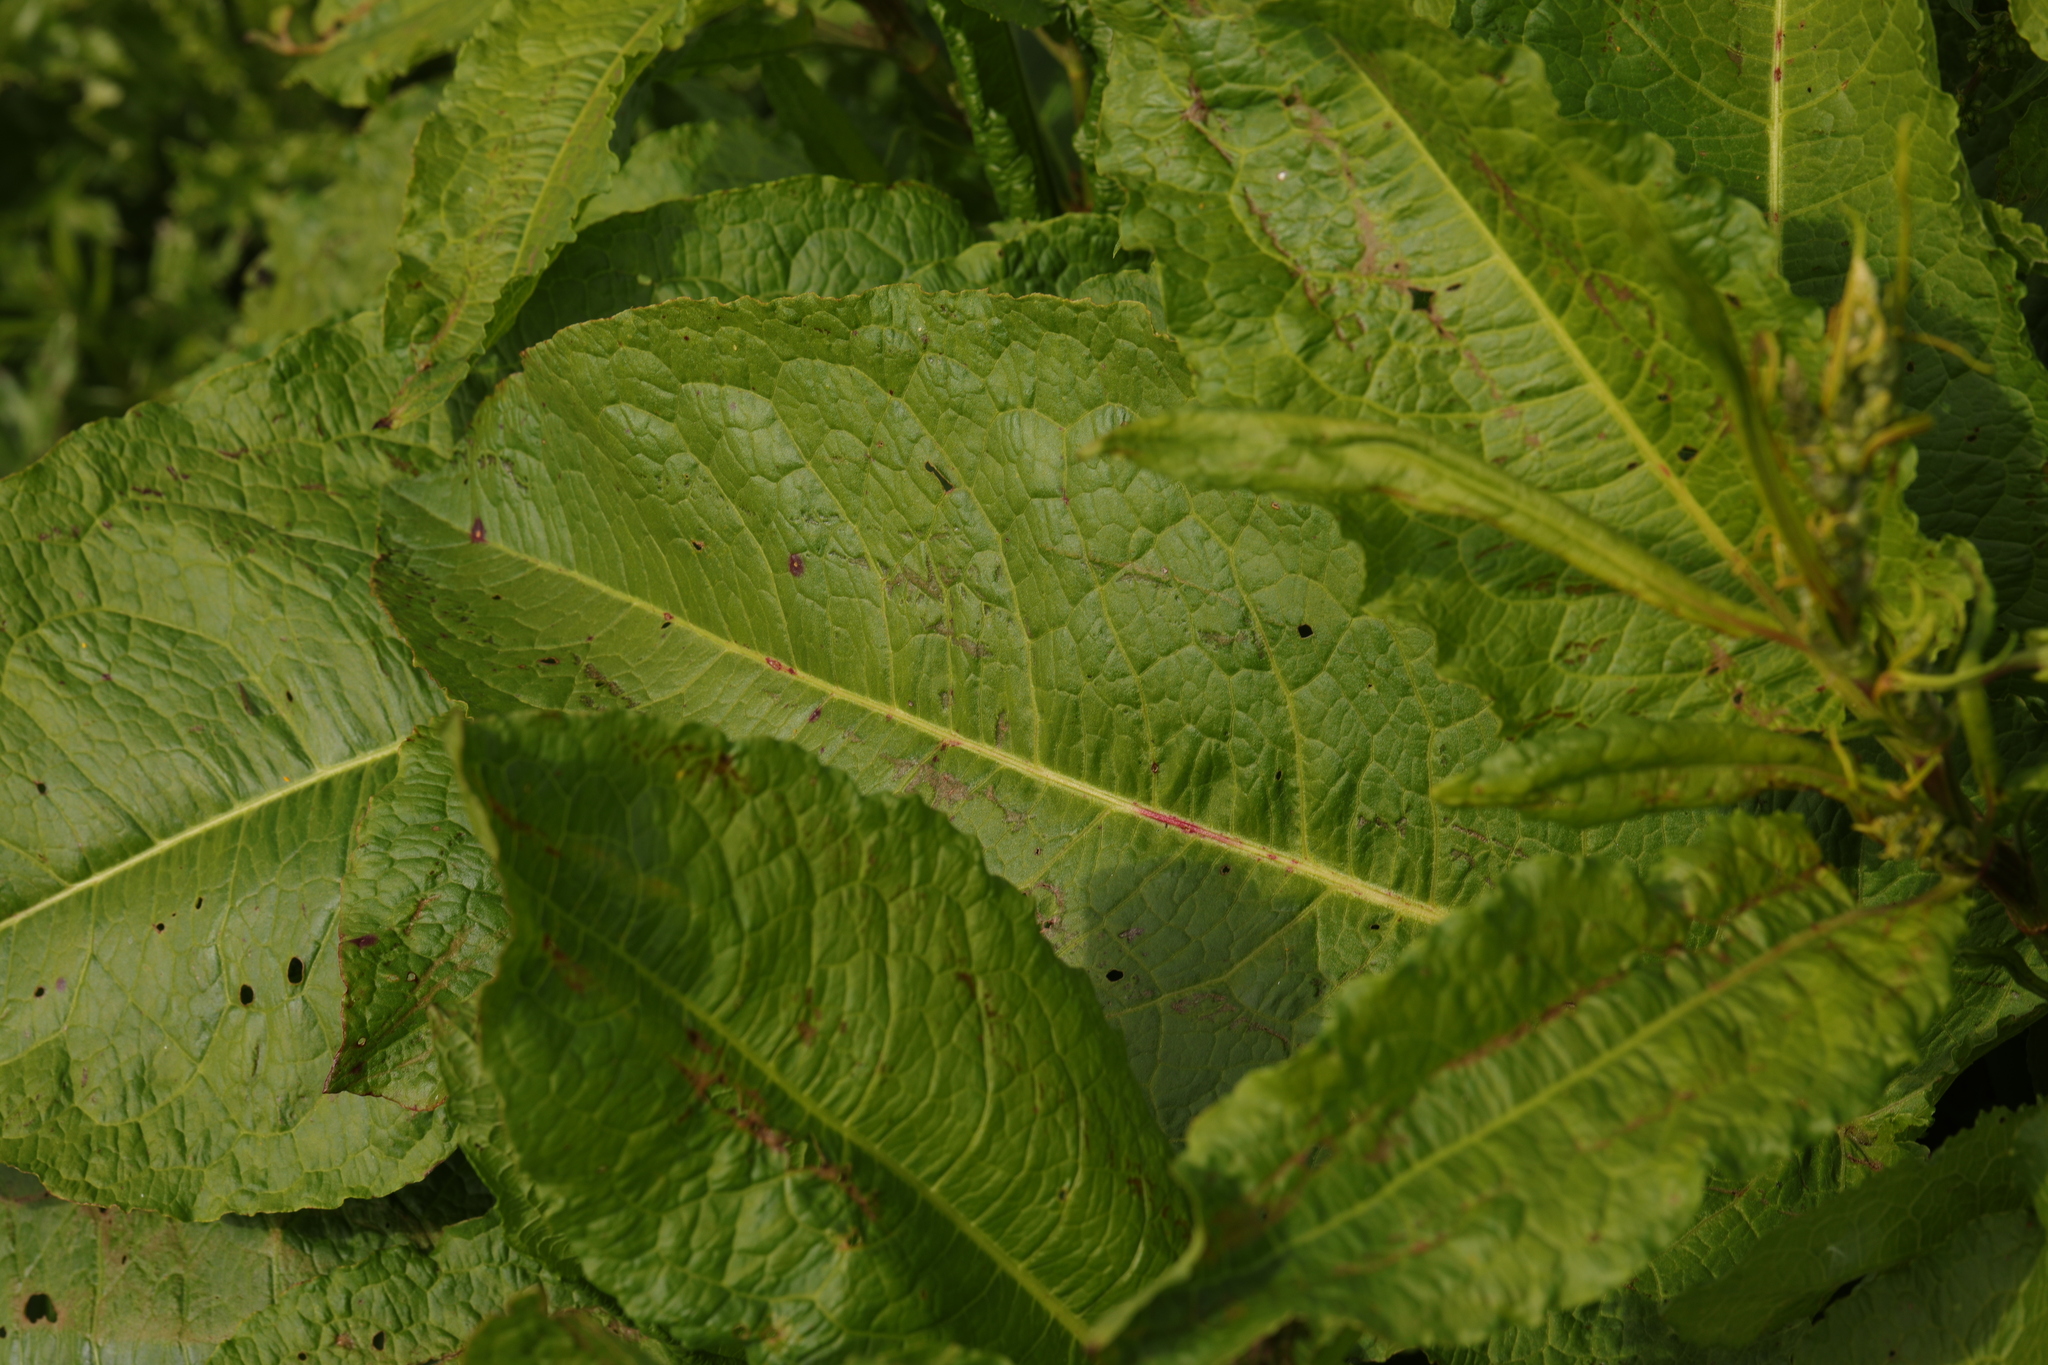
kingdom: Plantae
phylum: Tracheophyta
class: Magnoliopsida
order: Caryophyllales
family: Polygonaceae
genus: Rumex
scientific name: Rumex obtusifolius
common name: Bitter dock
